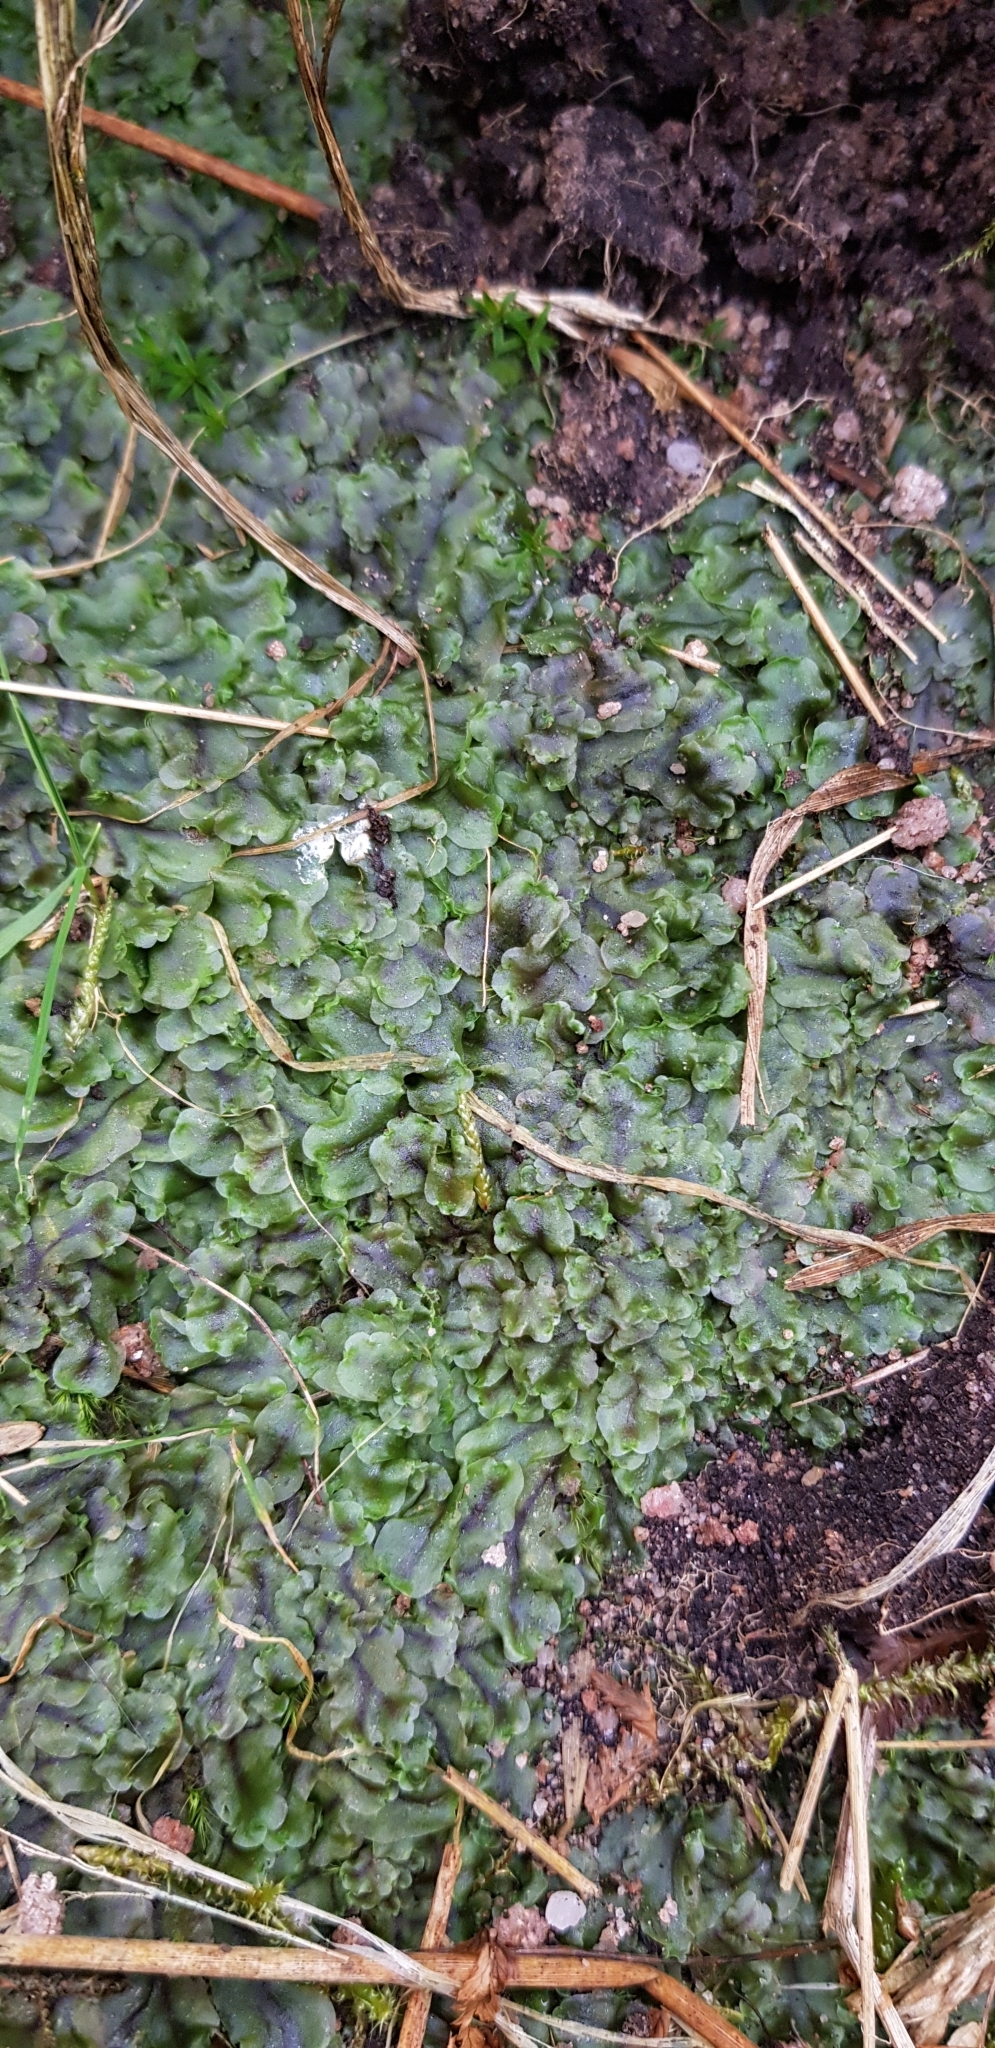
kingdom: Plantae
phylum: Marchantiophyta
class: Jungermanniopsida
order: Pelliales
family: Pelliaceae
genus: Pellia
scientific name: Pellia epiphylla
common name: Common pellia
